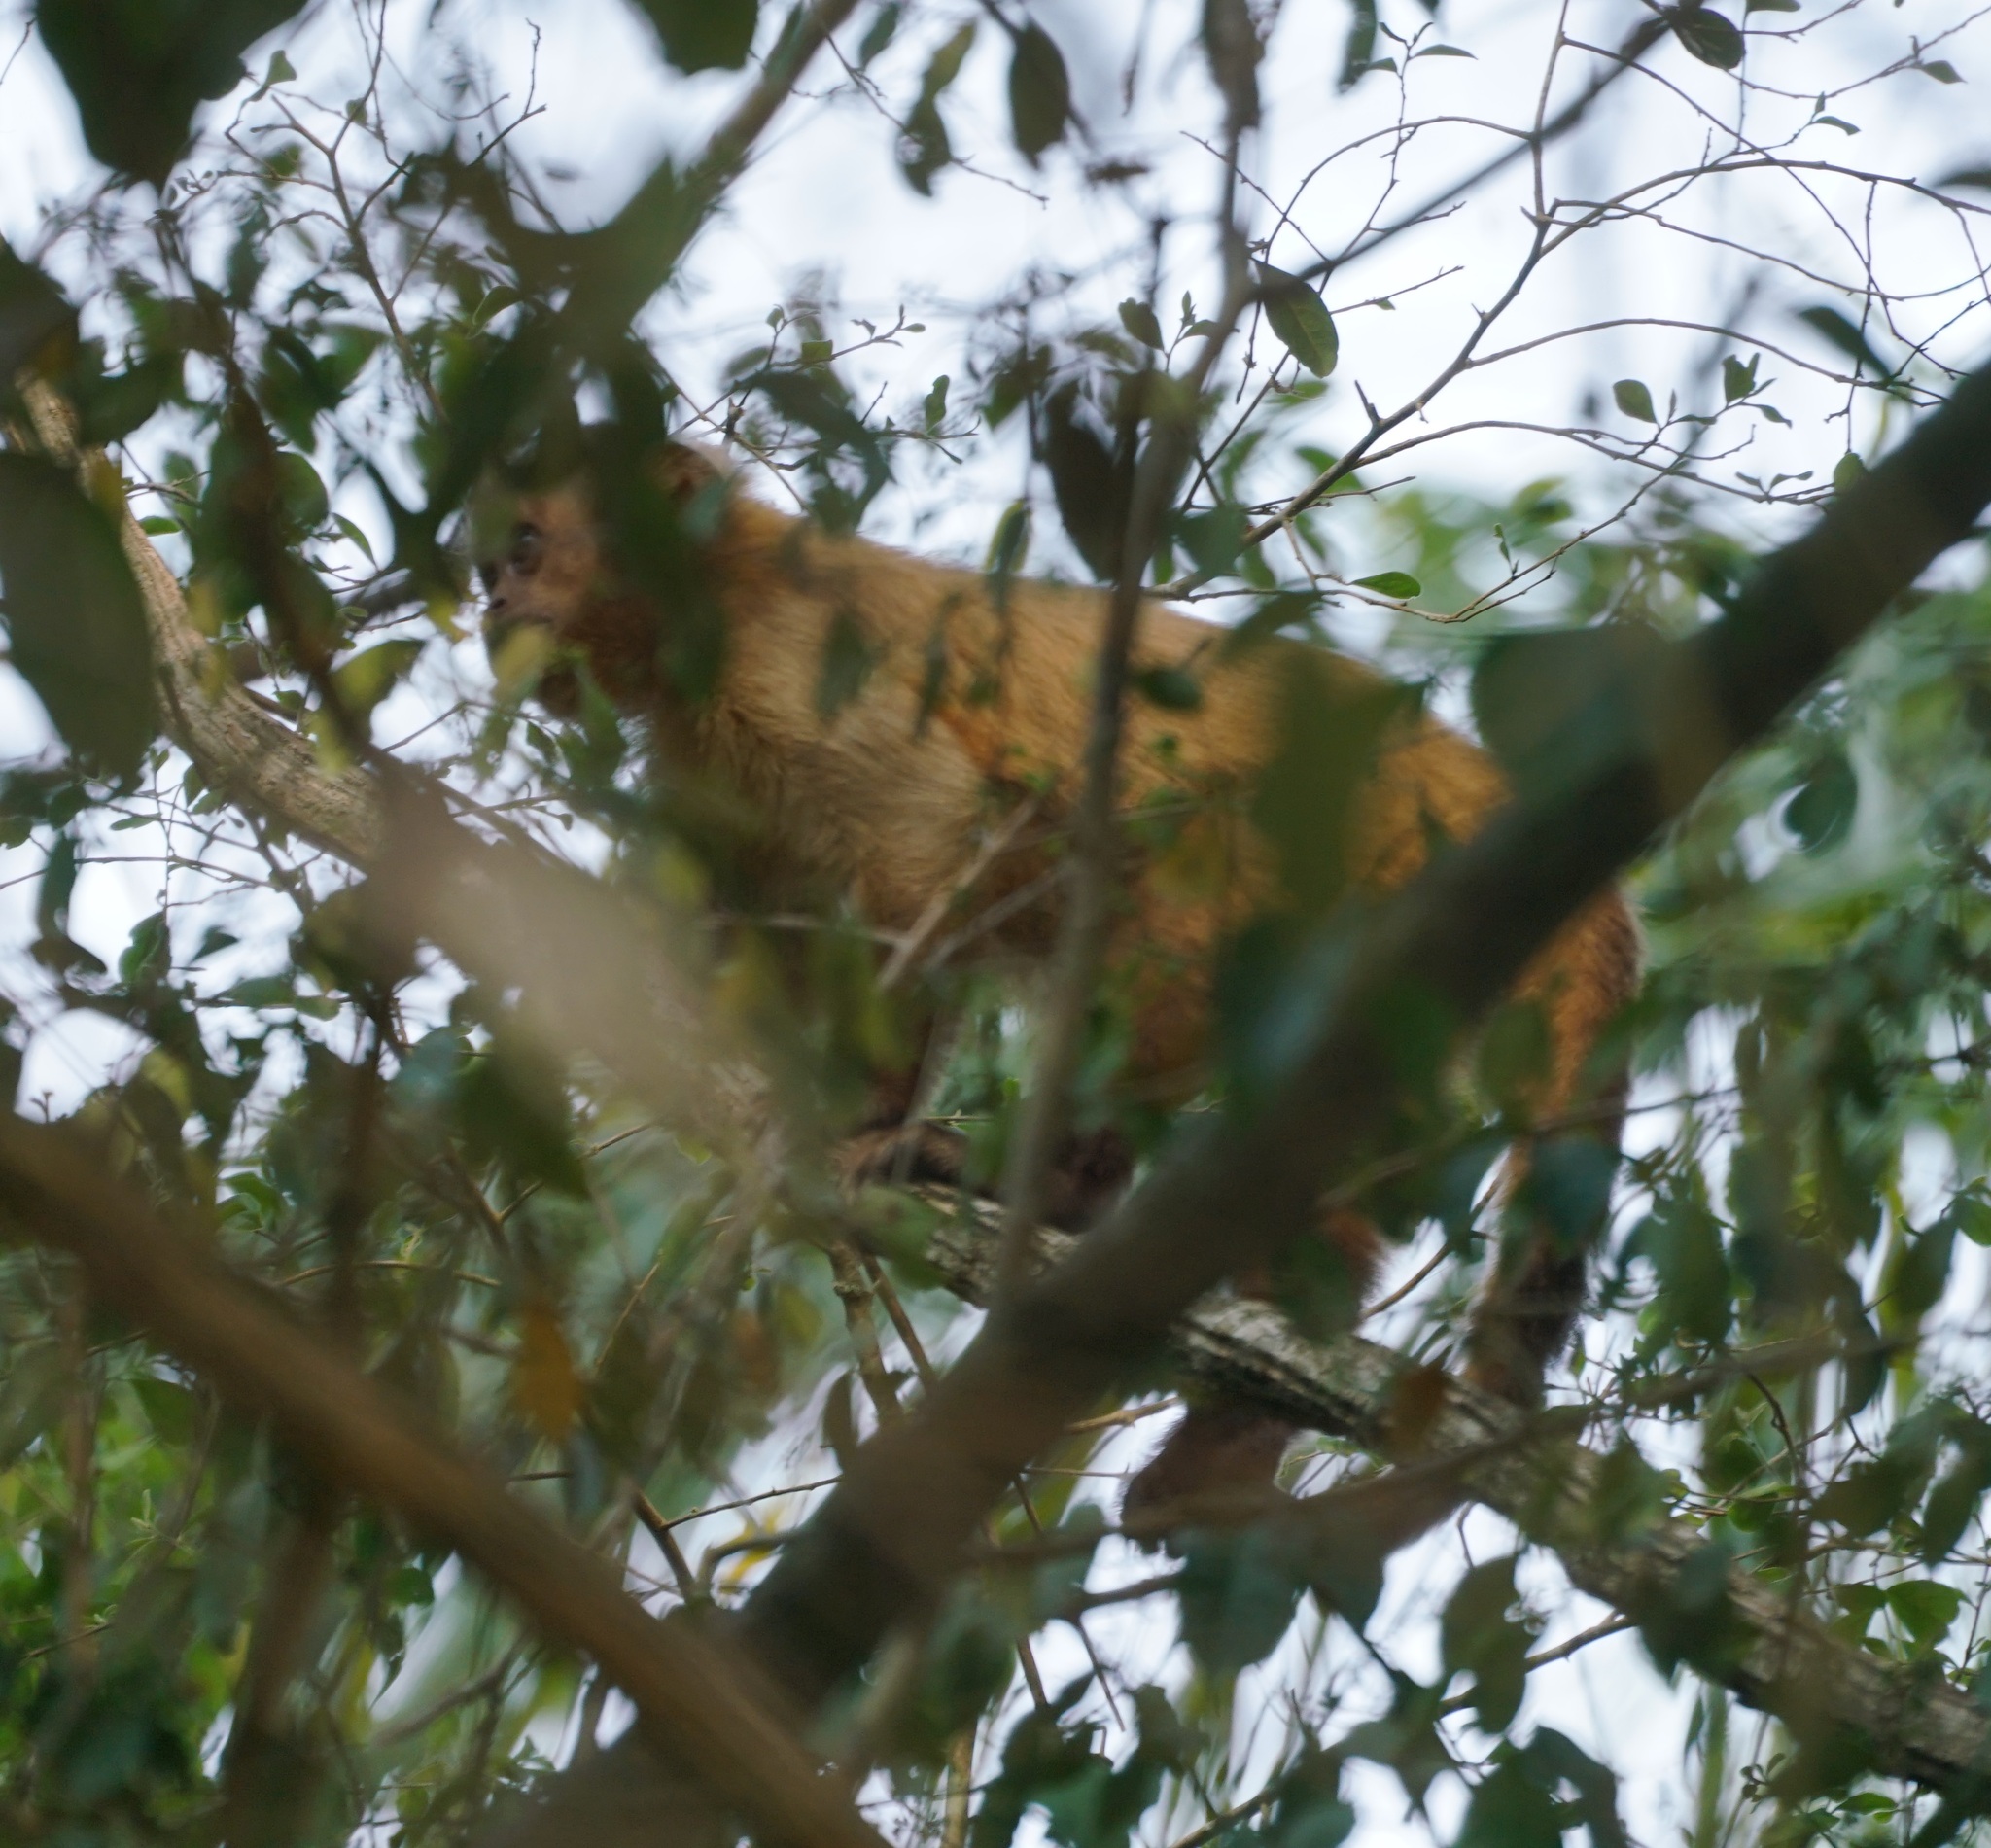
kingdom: Animalia
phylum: Chordata
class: Mammalia
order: Primates
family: Cebidae
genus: Sapajus
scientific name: Sapajus apella
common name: Tufted capuchin
